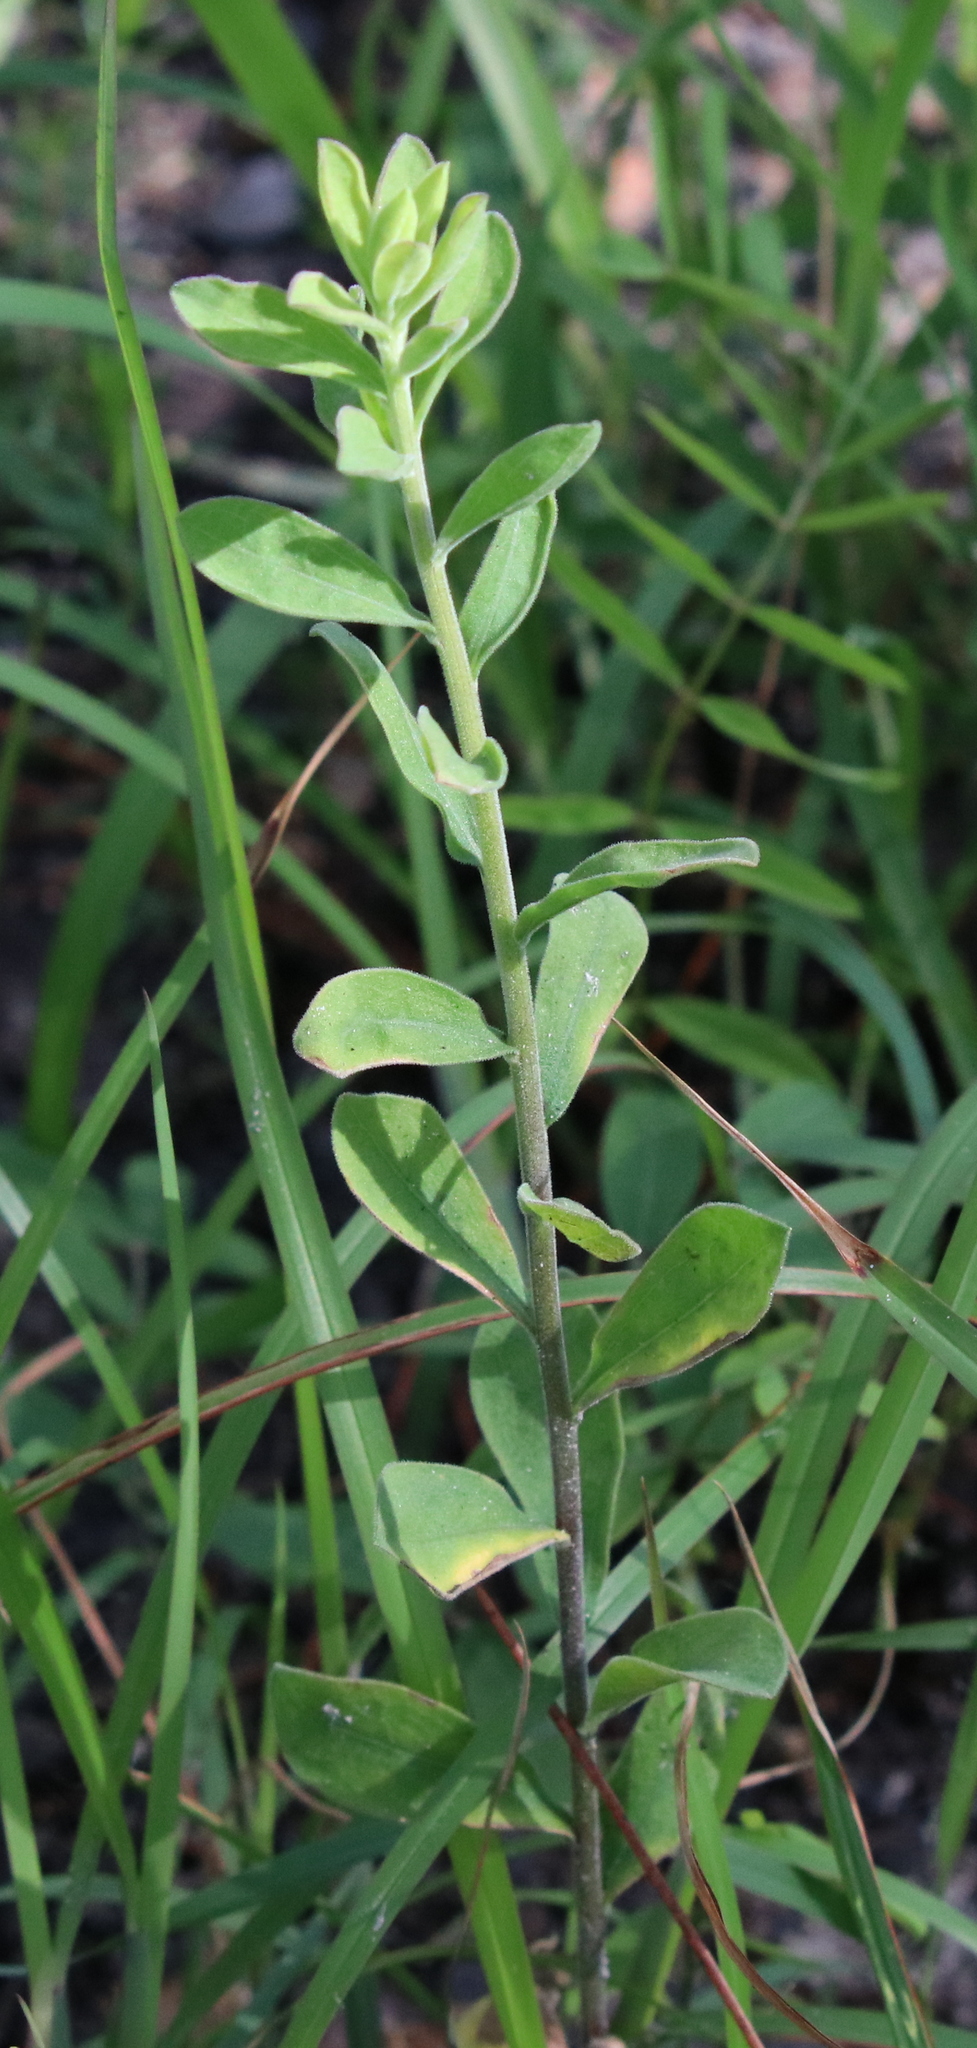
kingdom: Plantae
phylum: Tracheophyta
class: Magnoliopsida
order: Asterales
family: Asteraceae
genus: Sericocarpus
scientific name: Sericocarpus tortifolius
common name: Dixie aster
